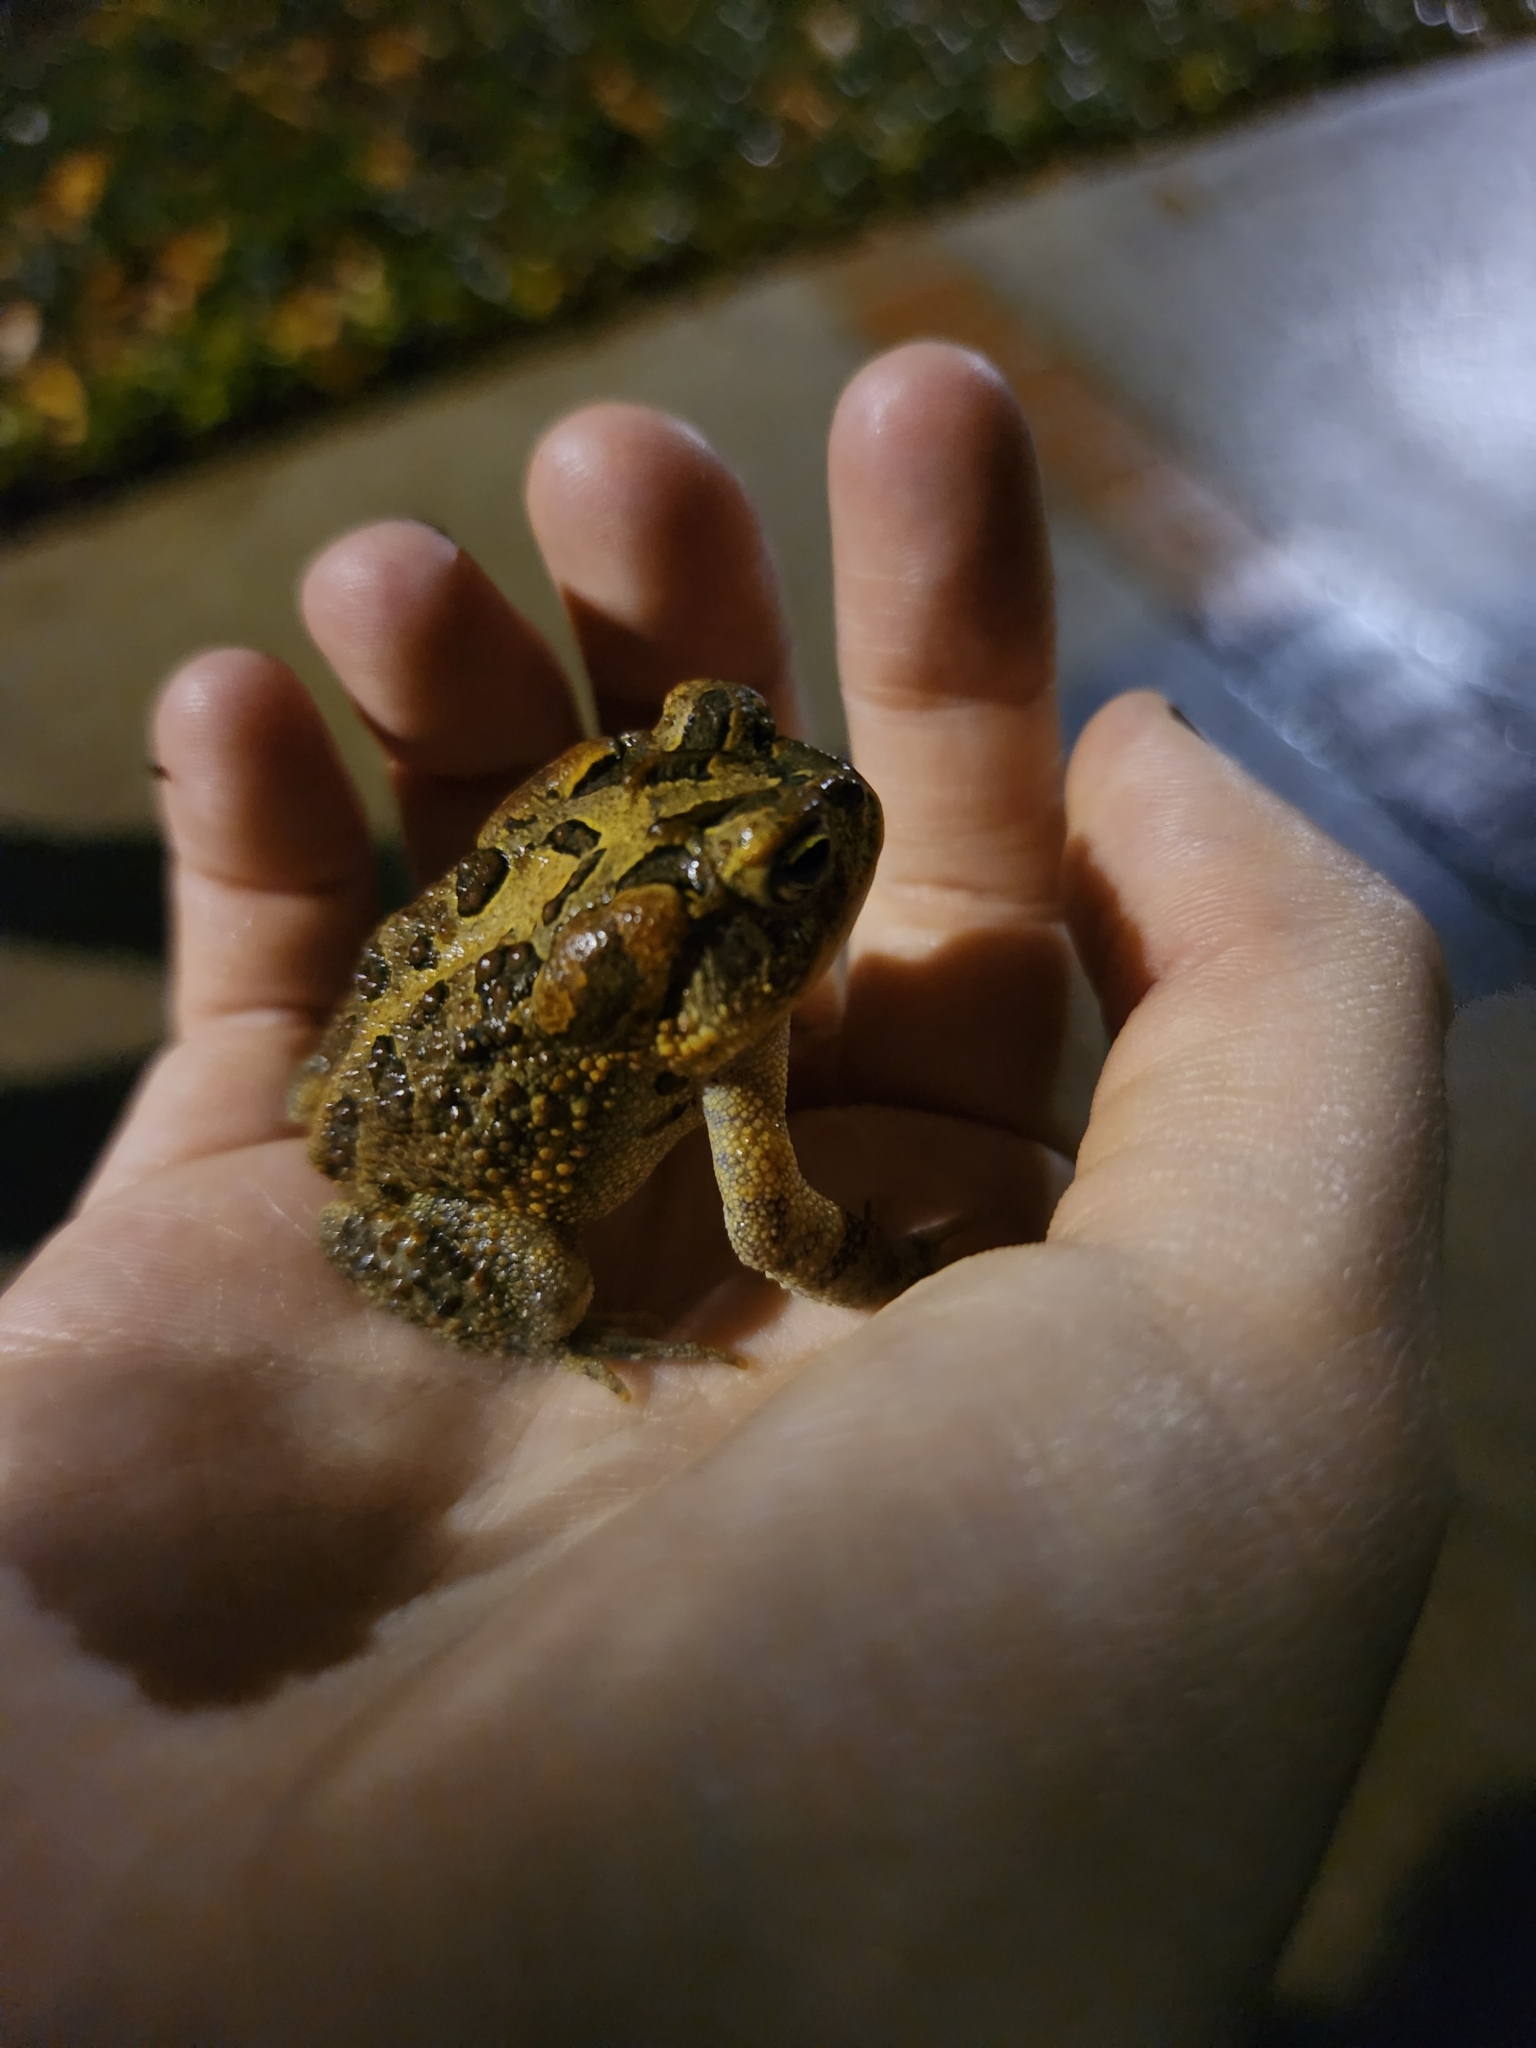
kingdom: Animalia
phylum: Chordata
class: Amphibia
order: Anura
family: Bufonidae
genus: Anaxyrus
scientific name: Anaxyrus terrestris
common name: Southern toad
